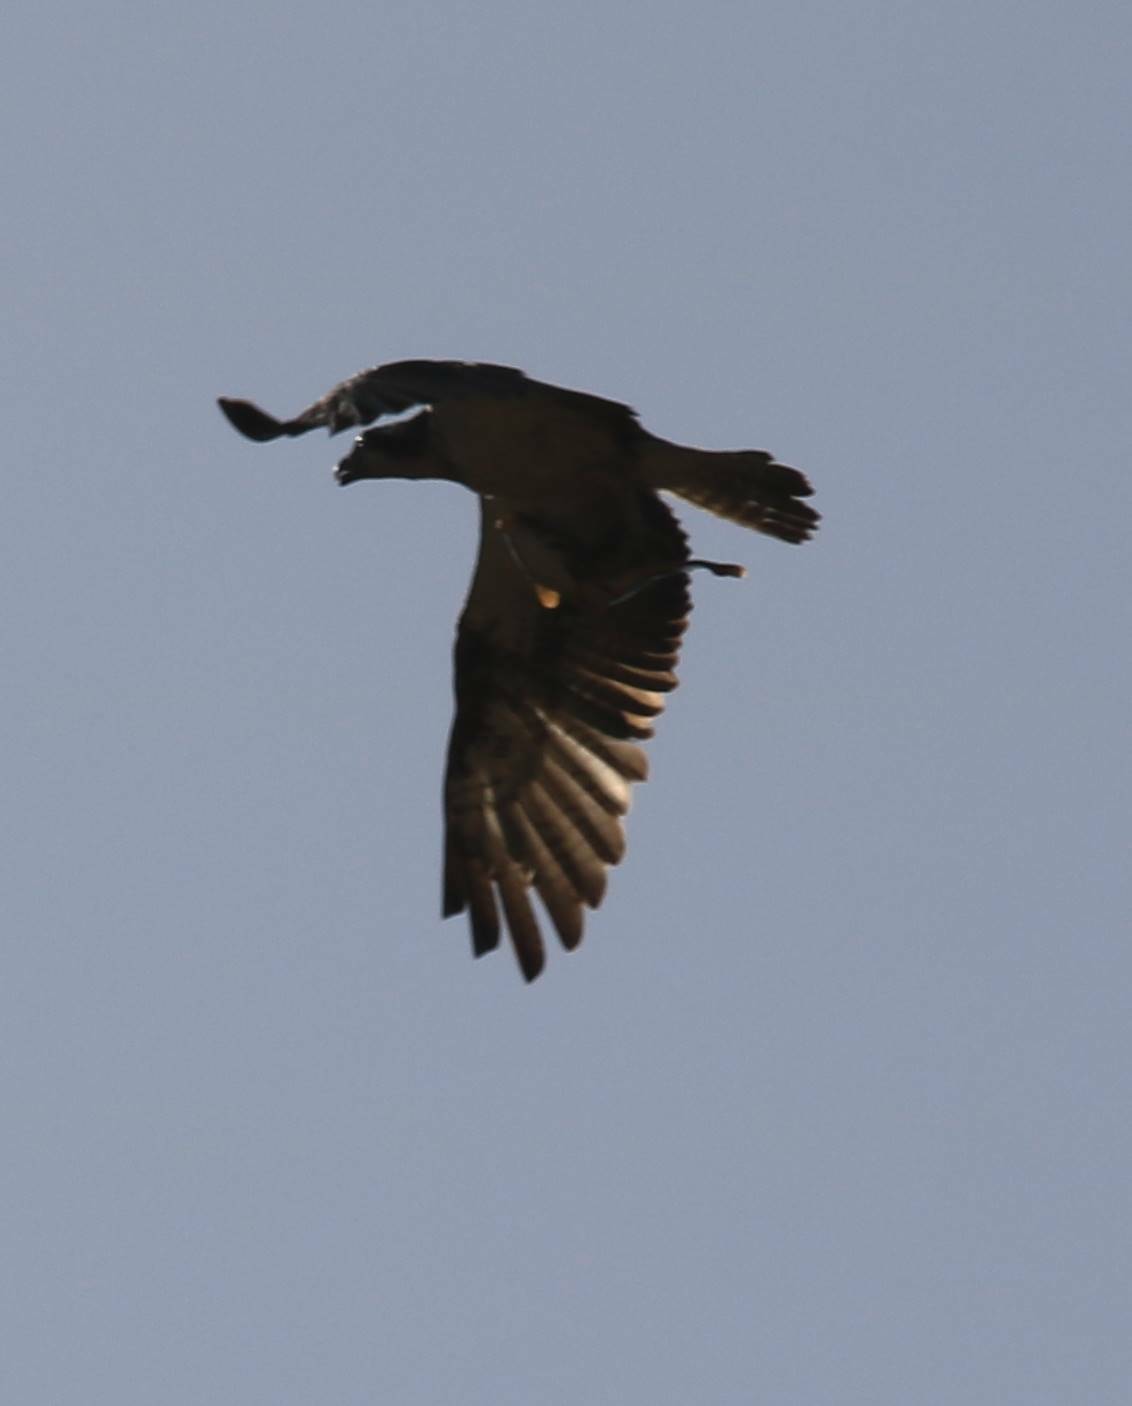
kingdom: Animalia
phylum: Chordata
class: Aves
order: Accipitriformes
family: Pandionidae
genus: Pandion
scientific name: Pandion haliaetus
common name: Osprey
